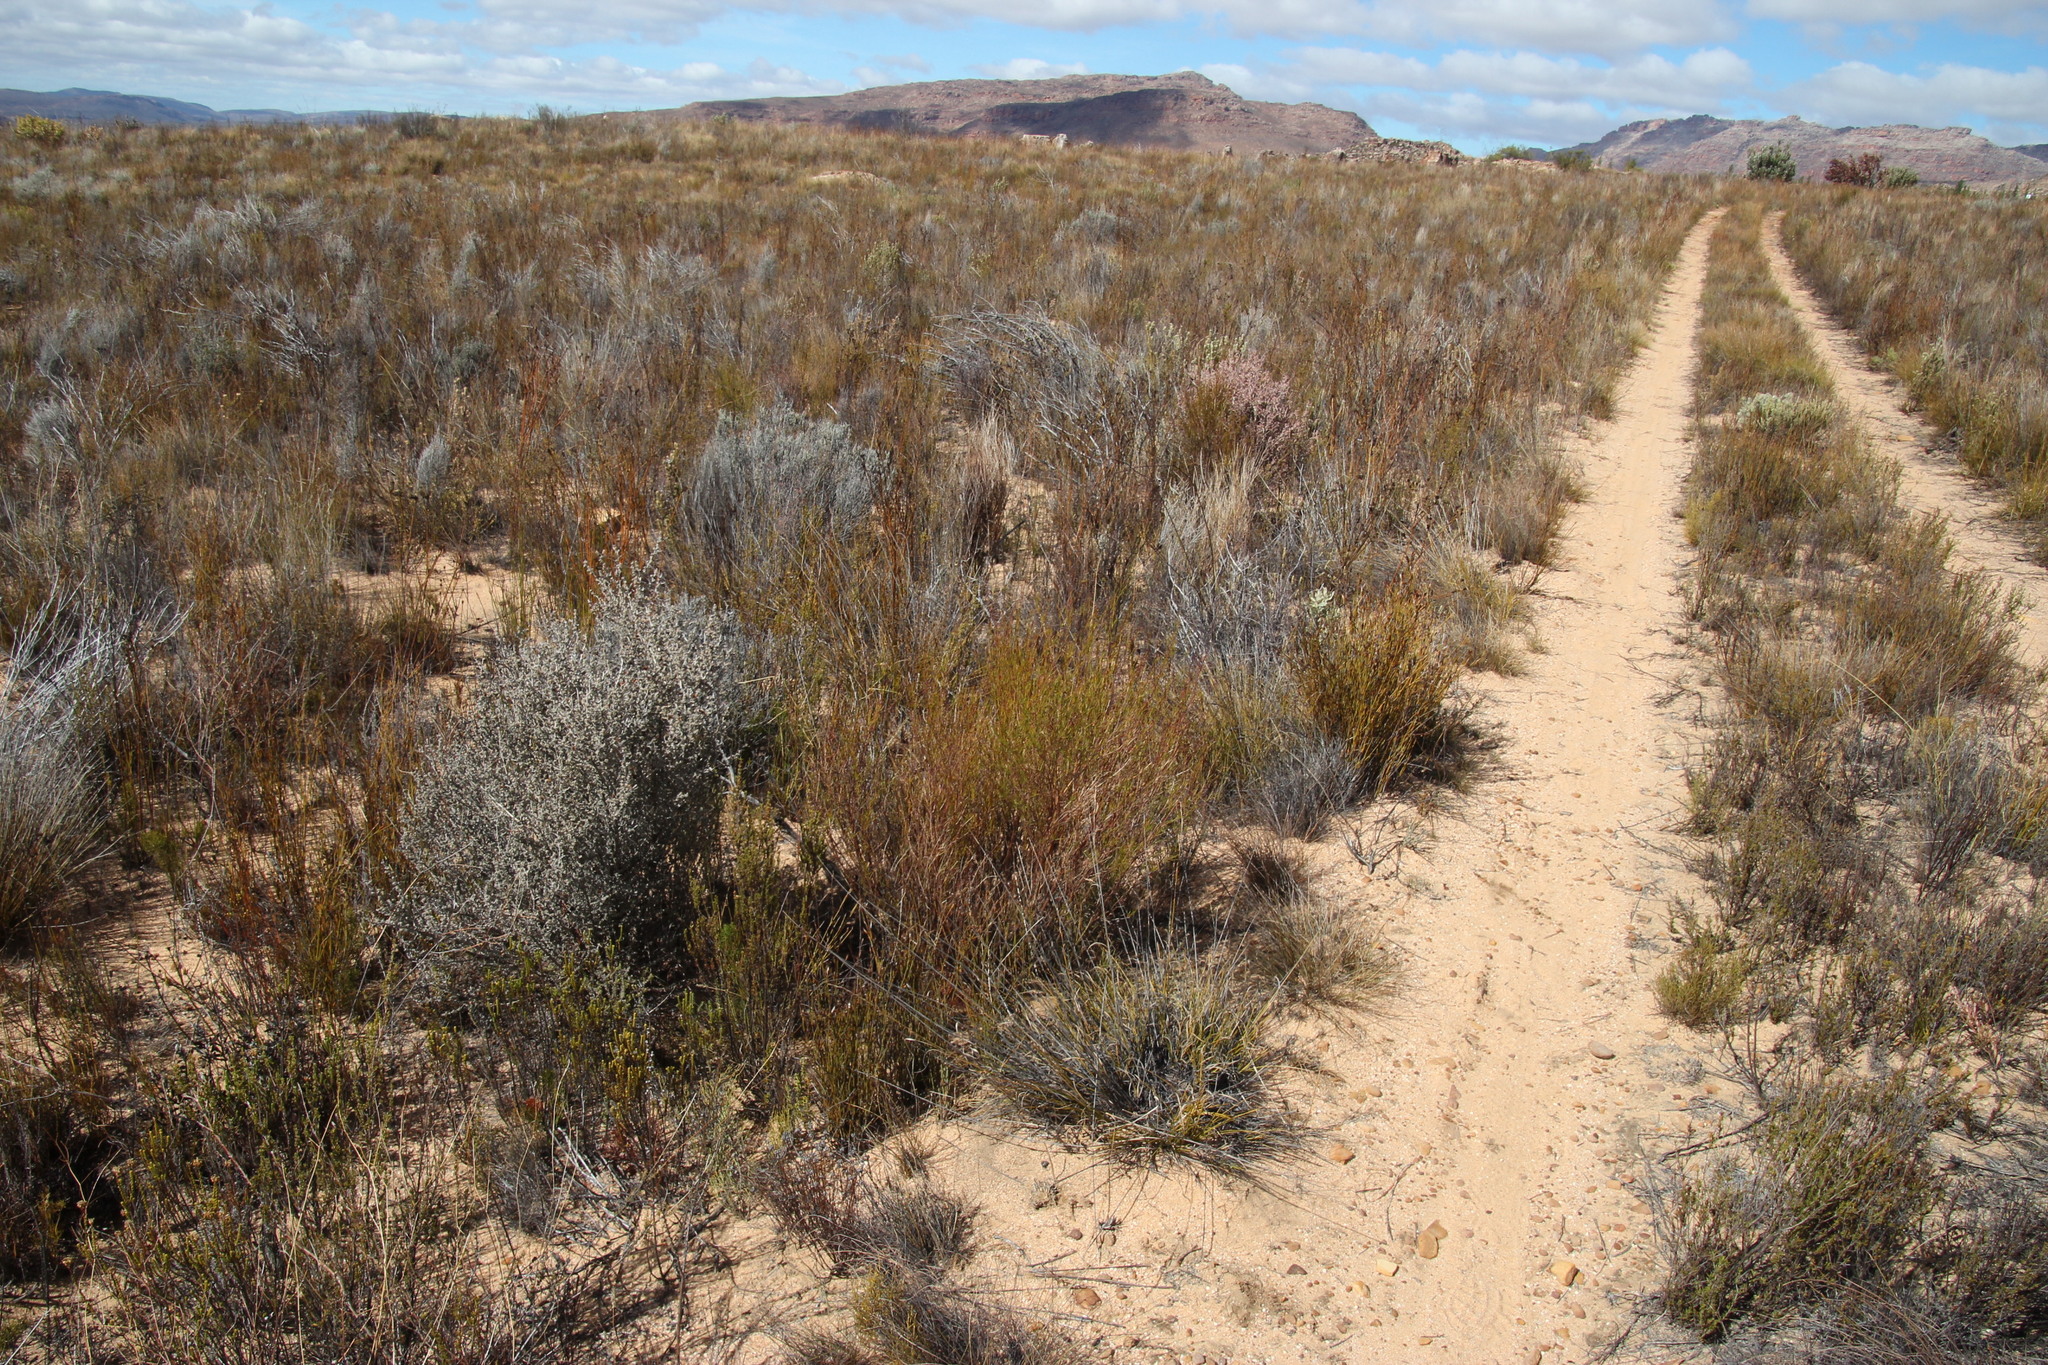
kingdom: Plantae
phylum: Tracheophyta
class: Magnoliopsida
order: Fabales
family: Fabaceae
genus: Aspalathus
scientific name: Aspalathus linearis
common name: Rooibos-tea
